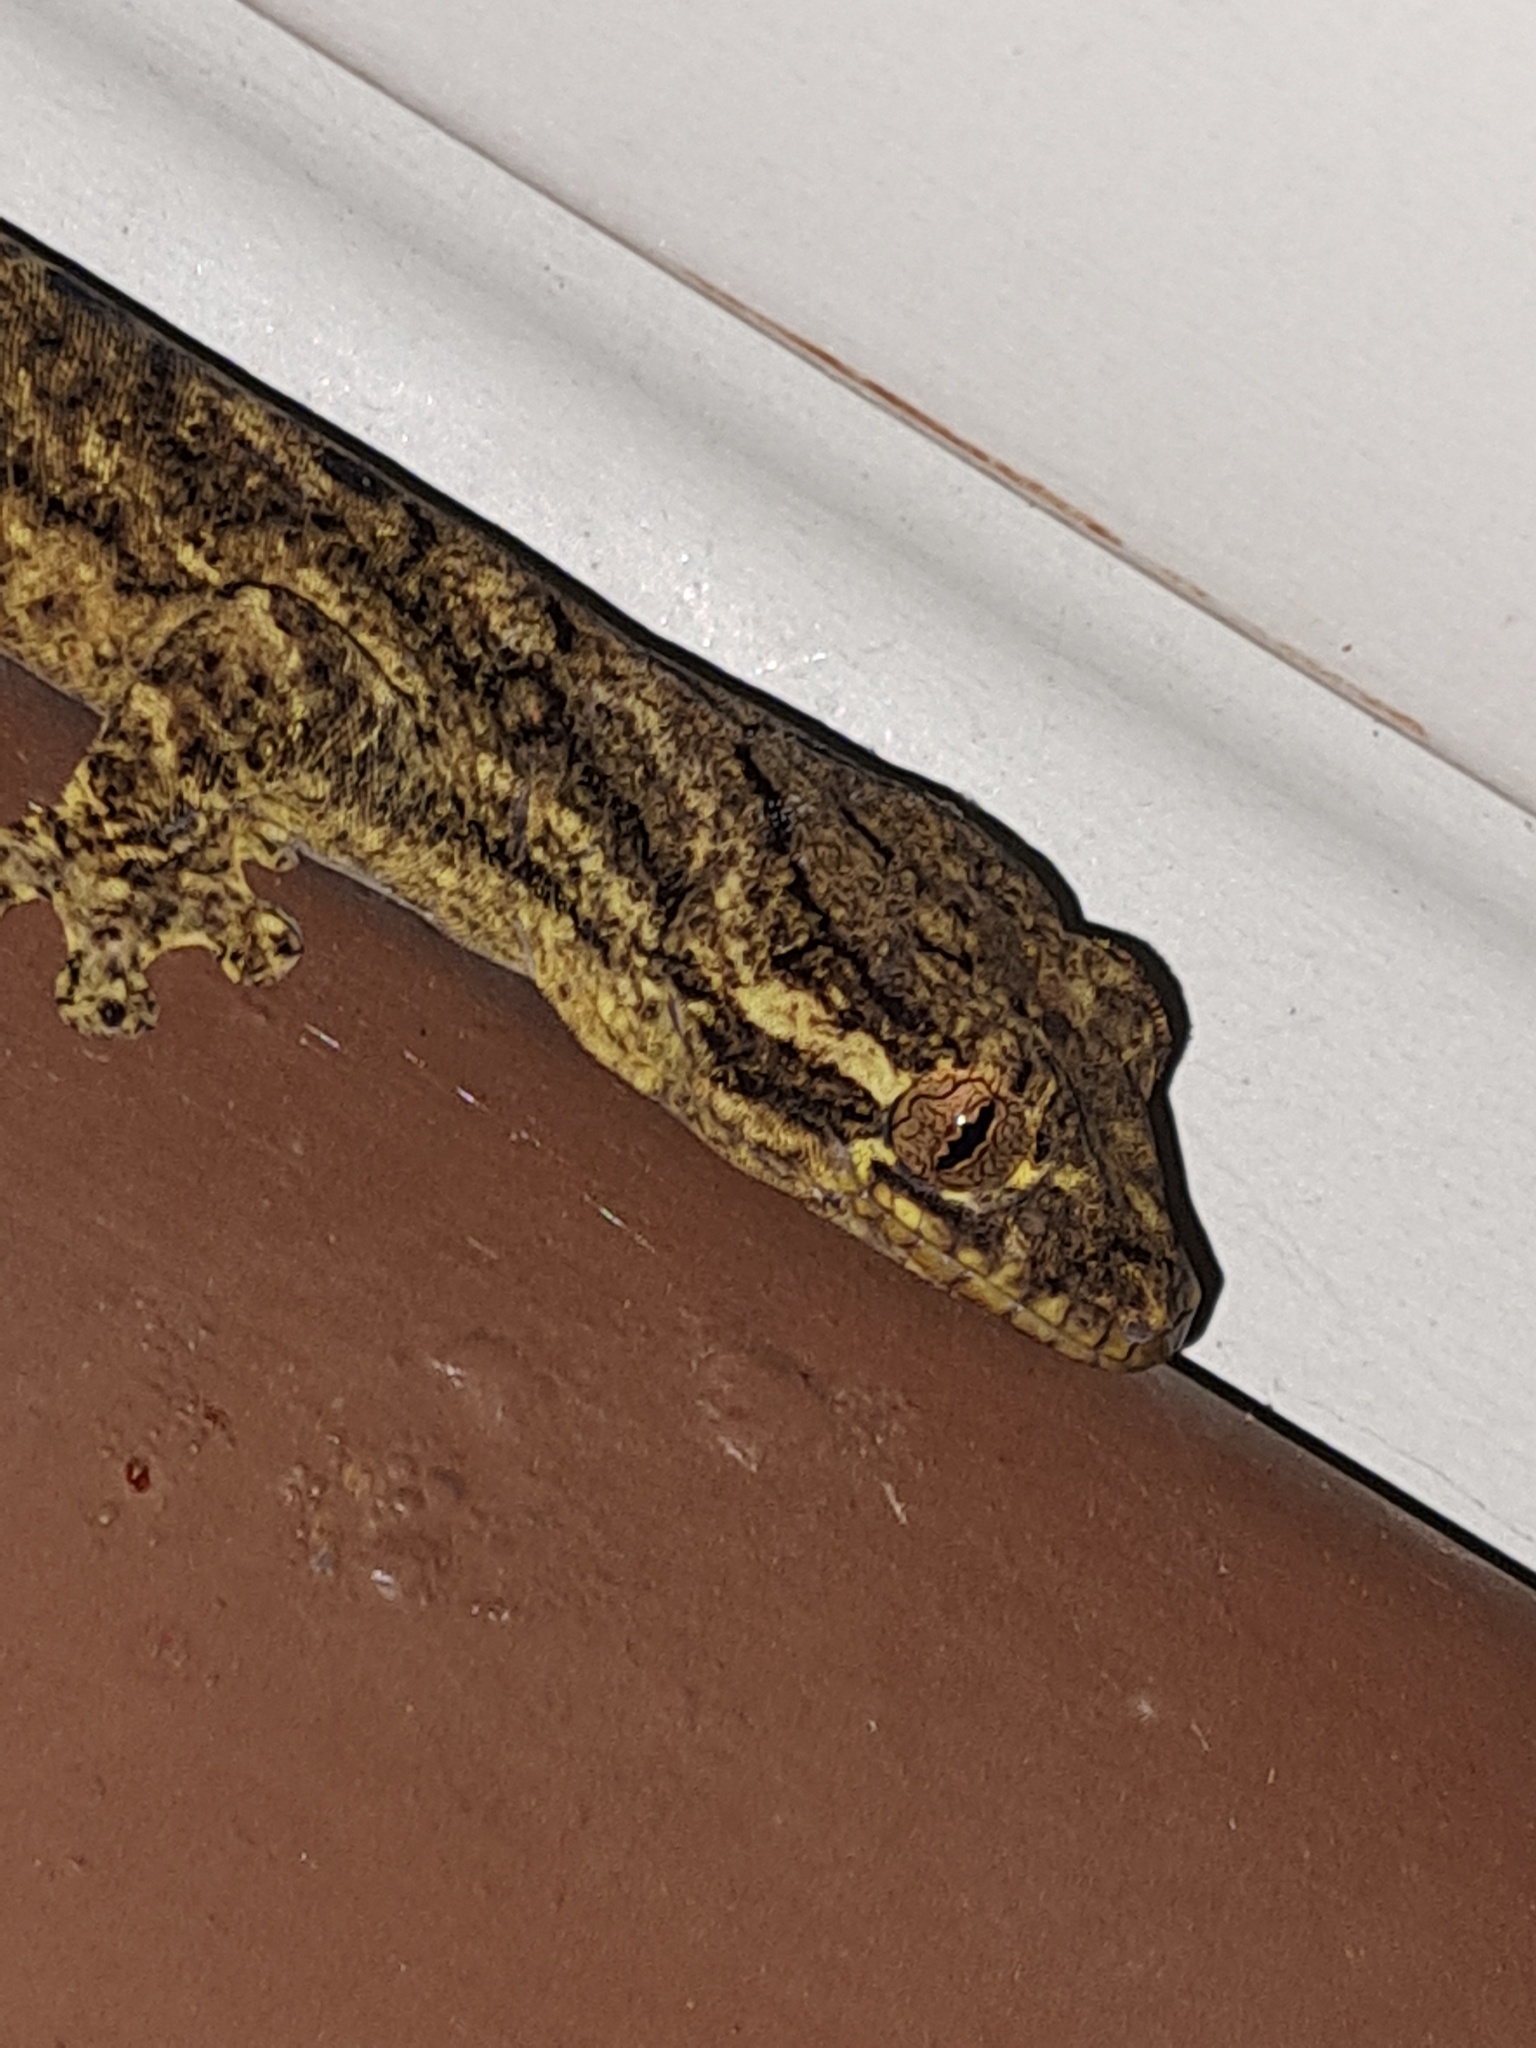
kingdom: Animalia
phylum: Chordata
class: Squamata
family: Phyllodactylidae
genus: Thecadactylus
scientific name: Thecadactylus solimoensis
